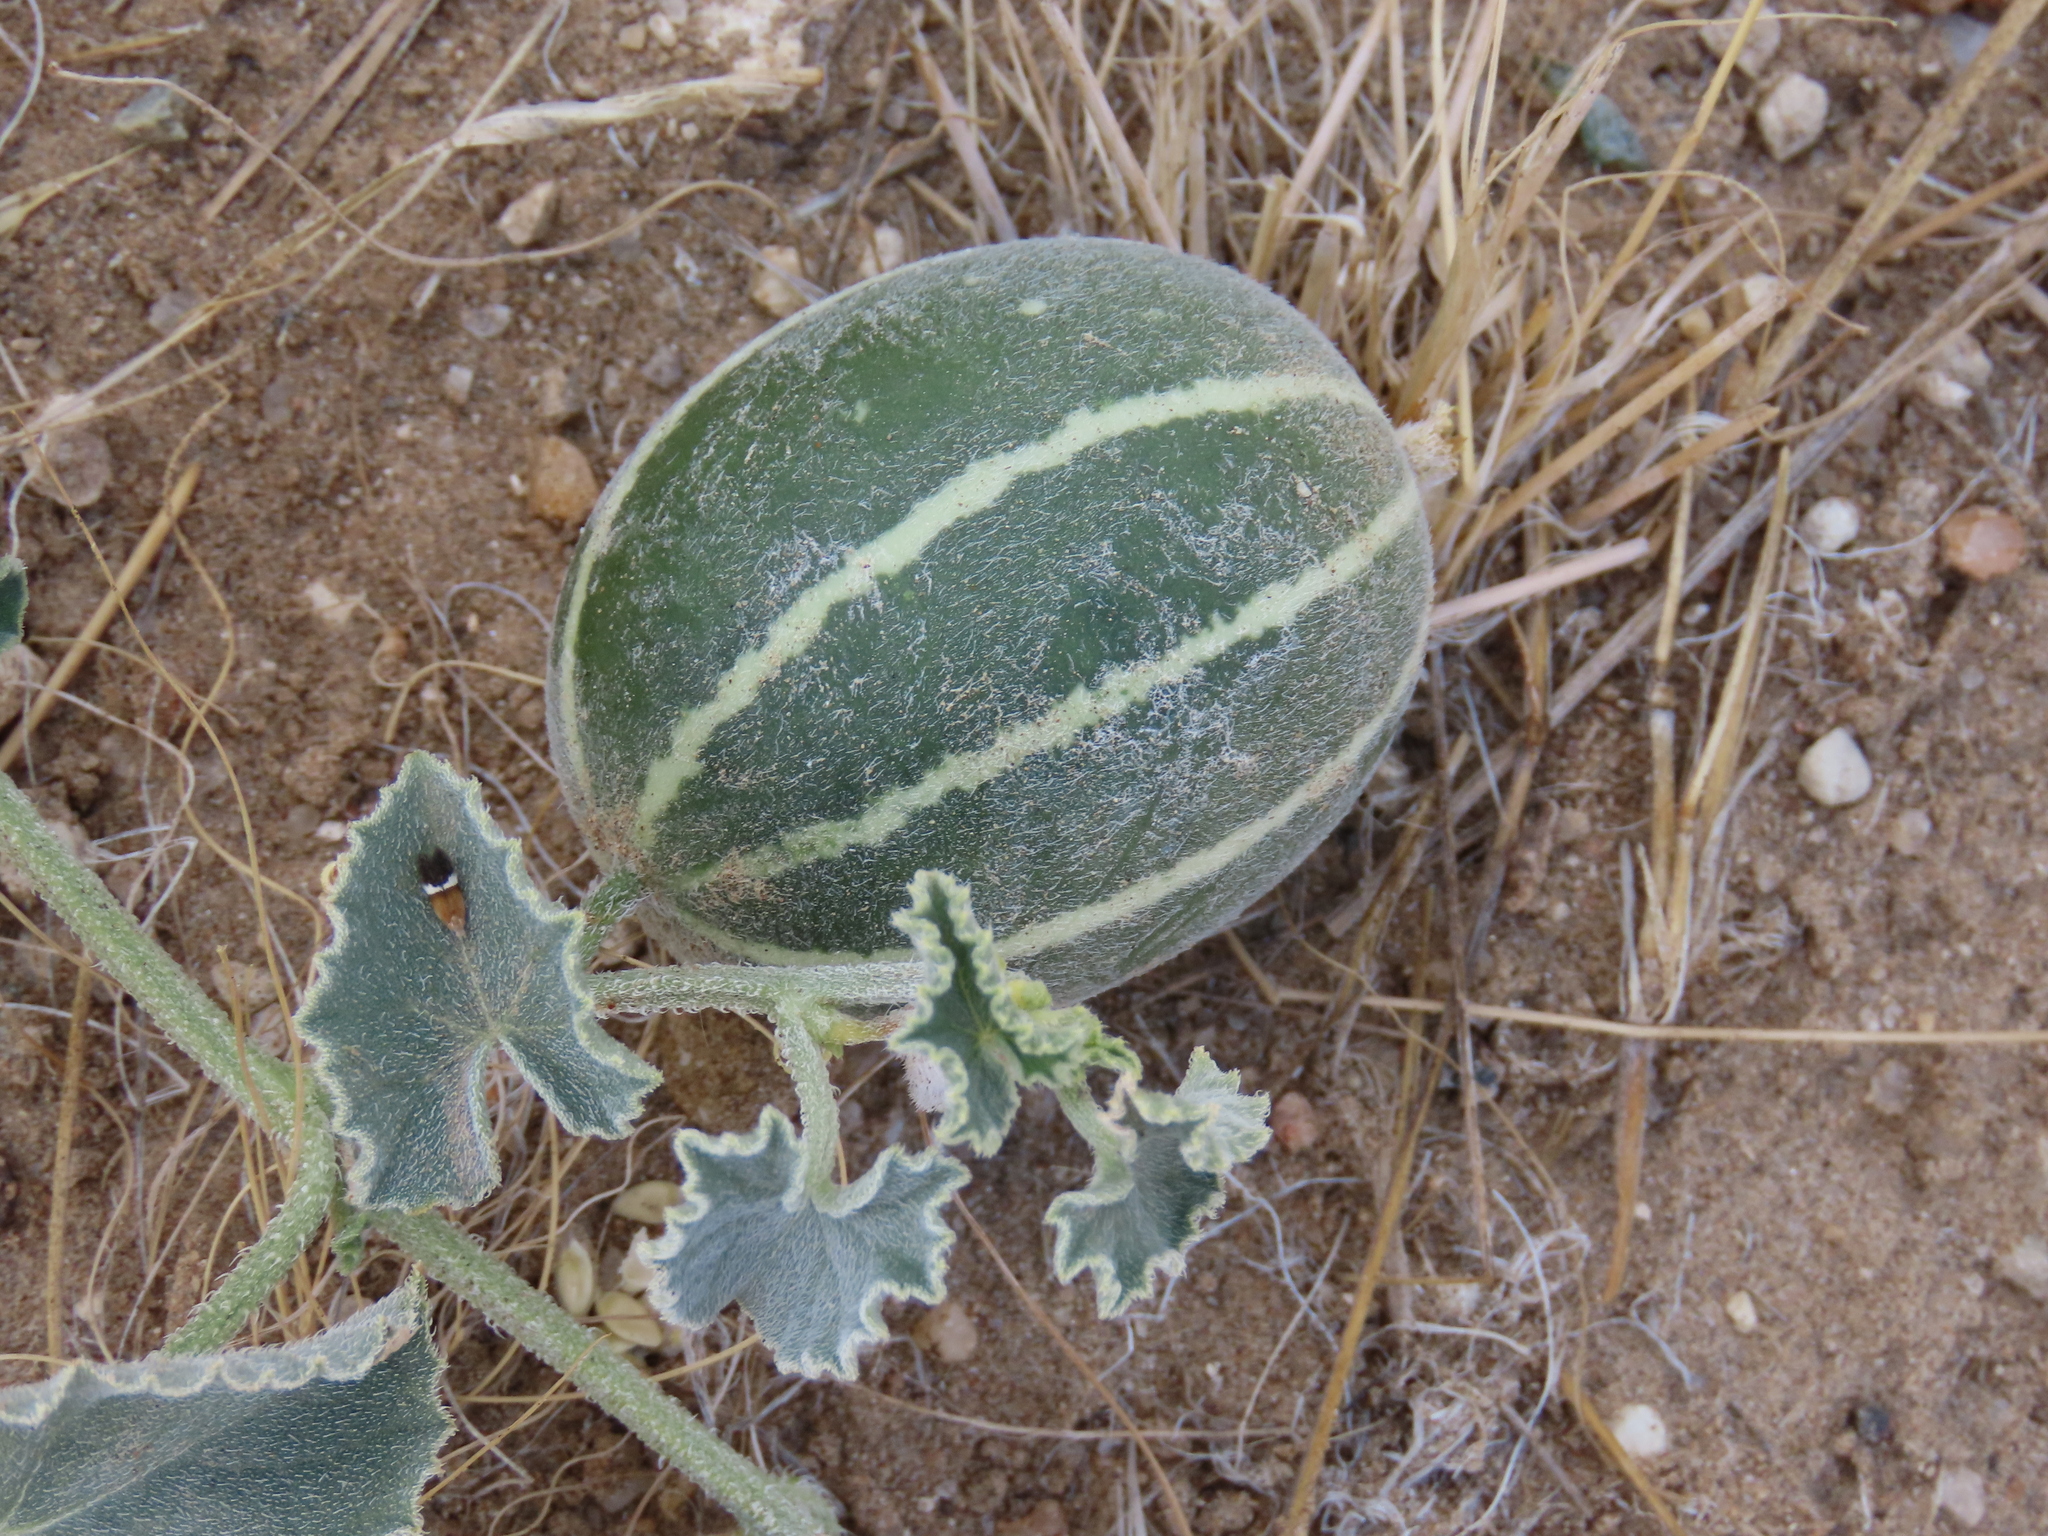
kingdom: Plantae
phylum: Tracheophyta
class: Magnoliopsida
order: Cucurbitales
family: Cucurbitaceae
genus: Cucumis
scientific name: Cucumis sagittatus
